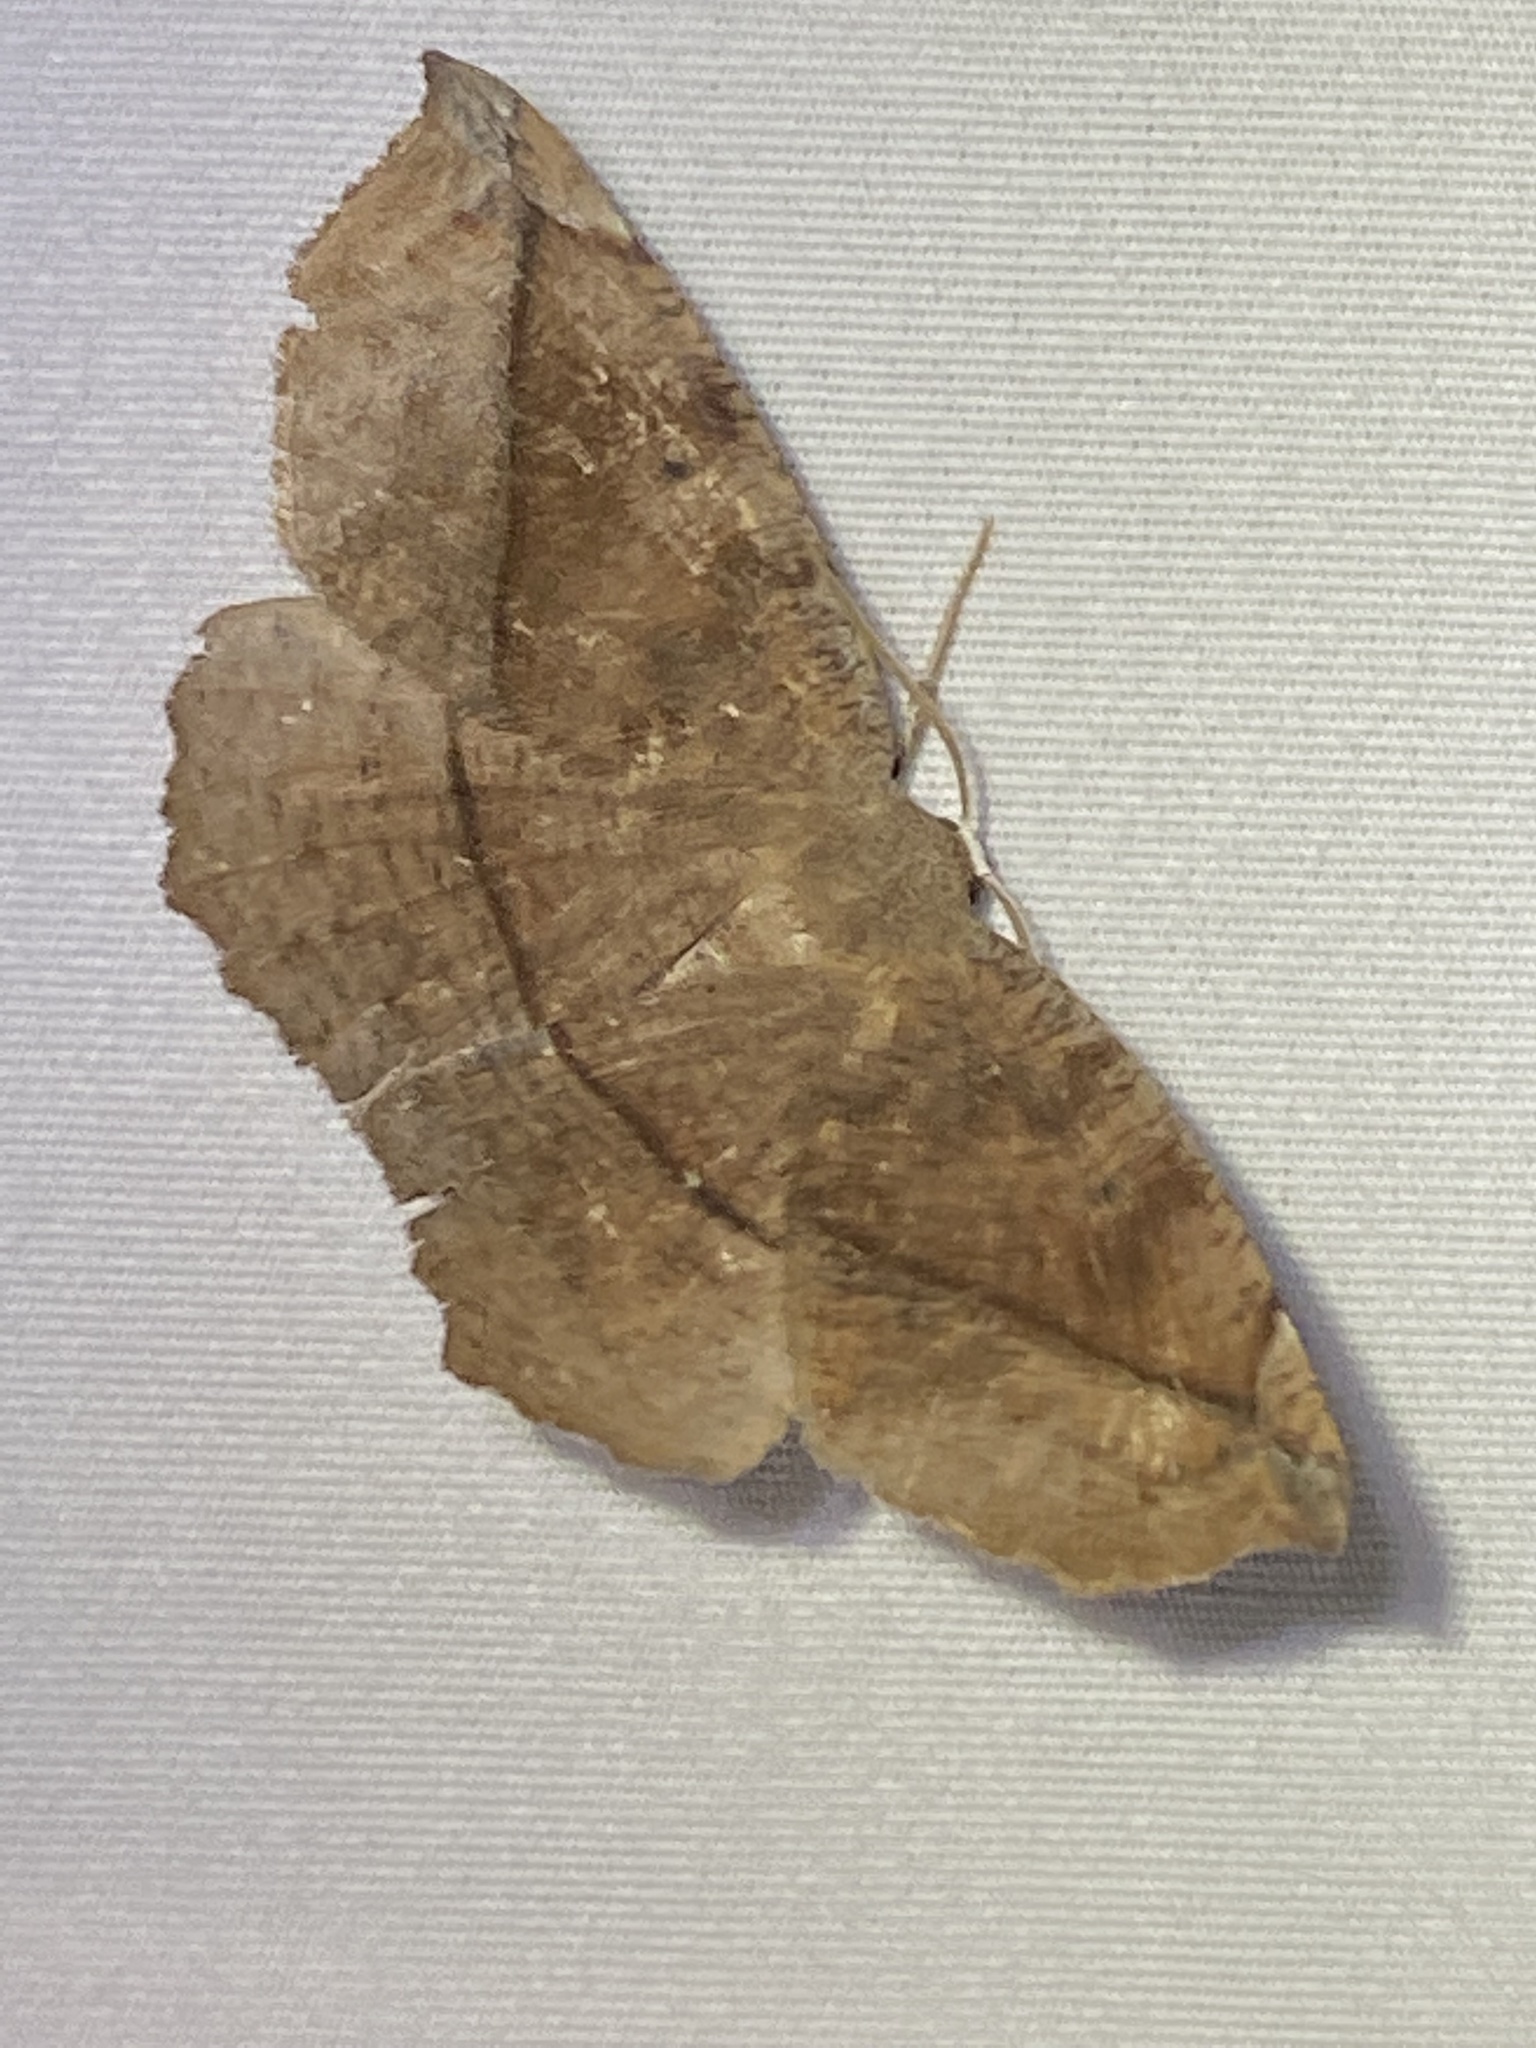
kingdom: Animalia
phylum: Arthropoda
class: Insecta
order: Lepidoptera
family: Geometridae
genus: Eutrapela
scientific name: Eutrapela clemataria
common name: Curved-toothed geometer
